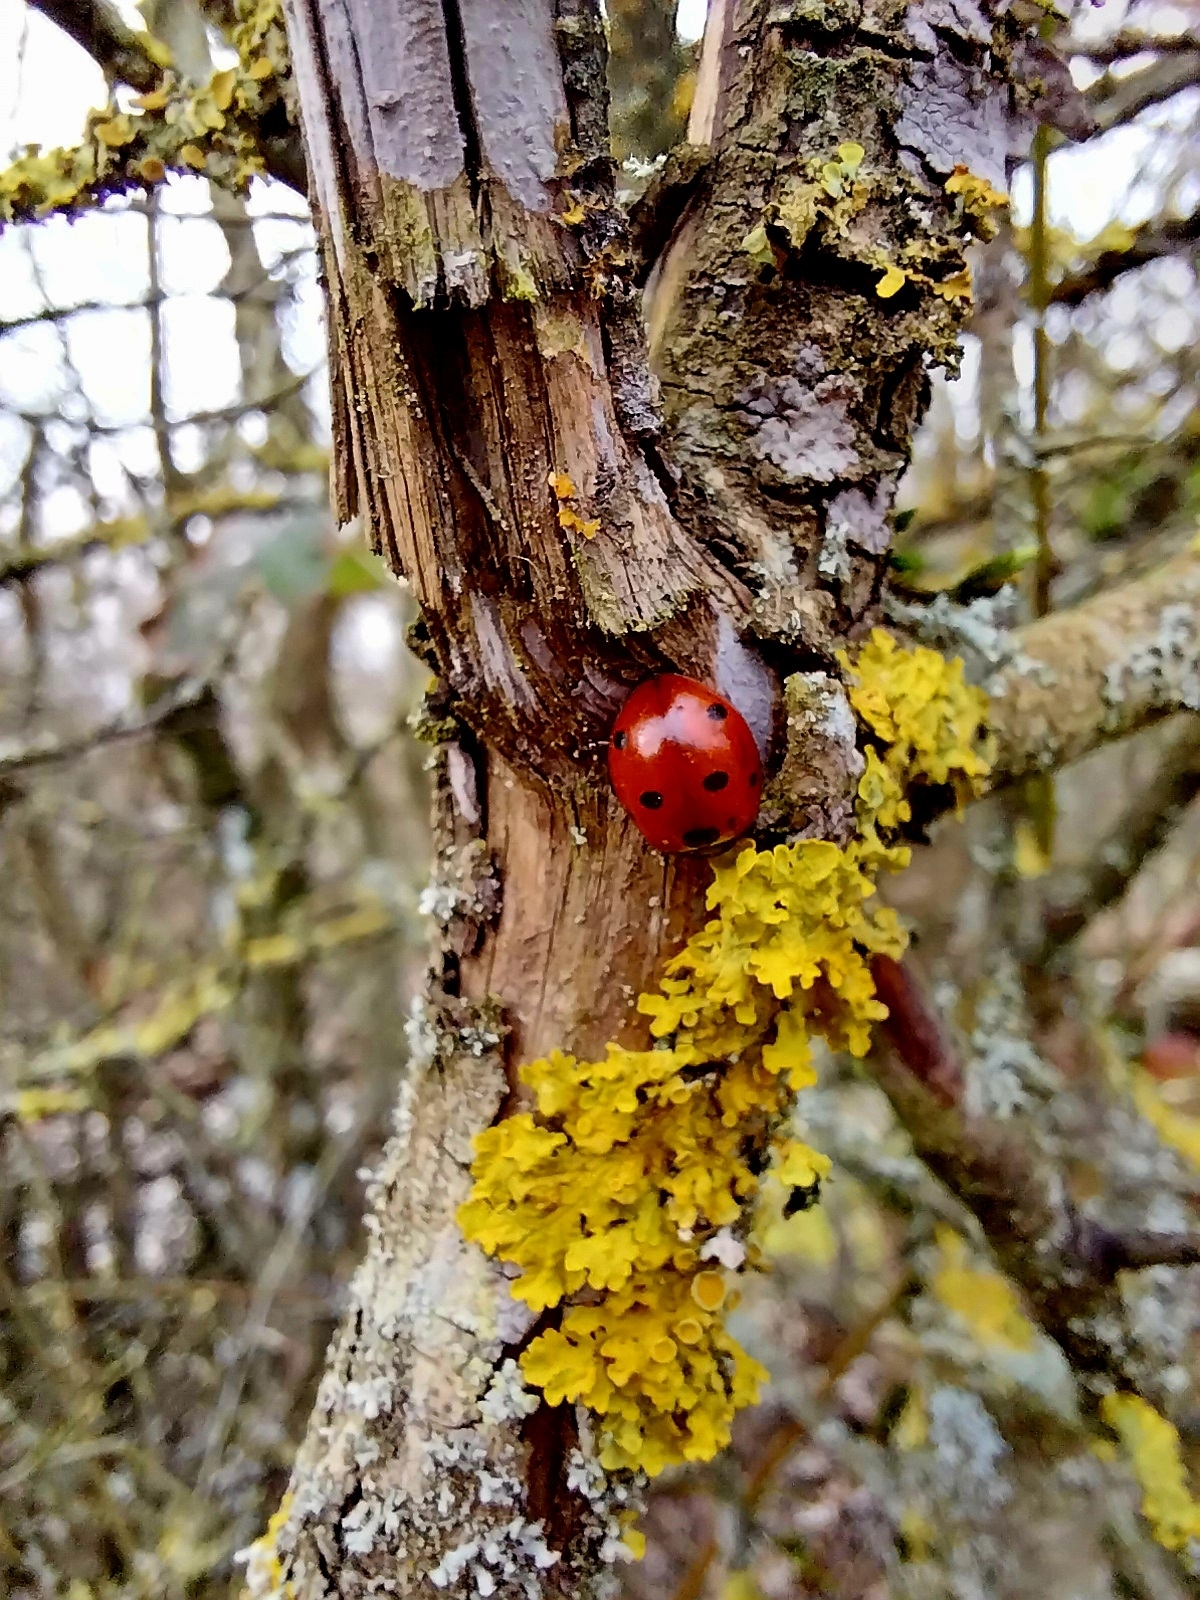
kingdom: Animalia
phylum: Arthropoda
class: Insecta
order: Coleoptera
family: Coccinellidae
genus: Coccinella
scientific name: Coccinella septempunctata
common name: Sevenspotted lady beetle
